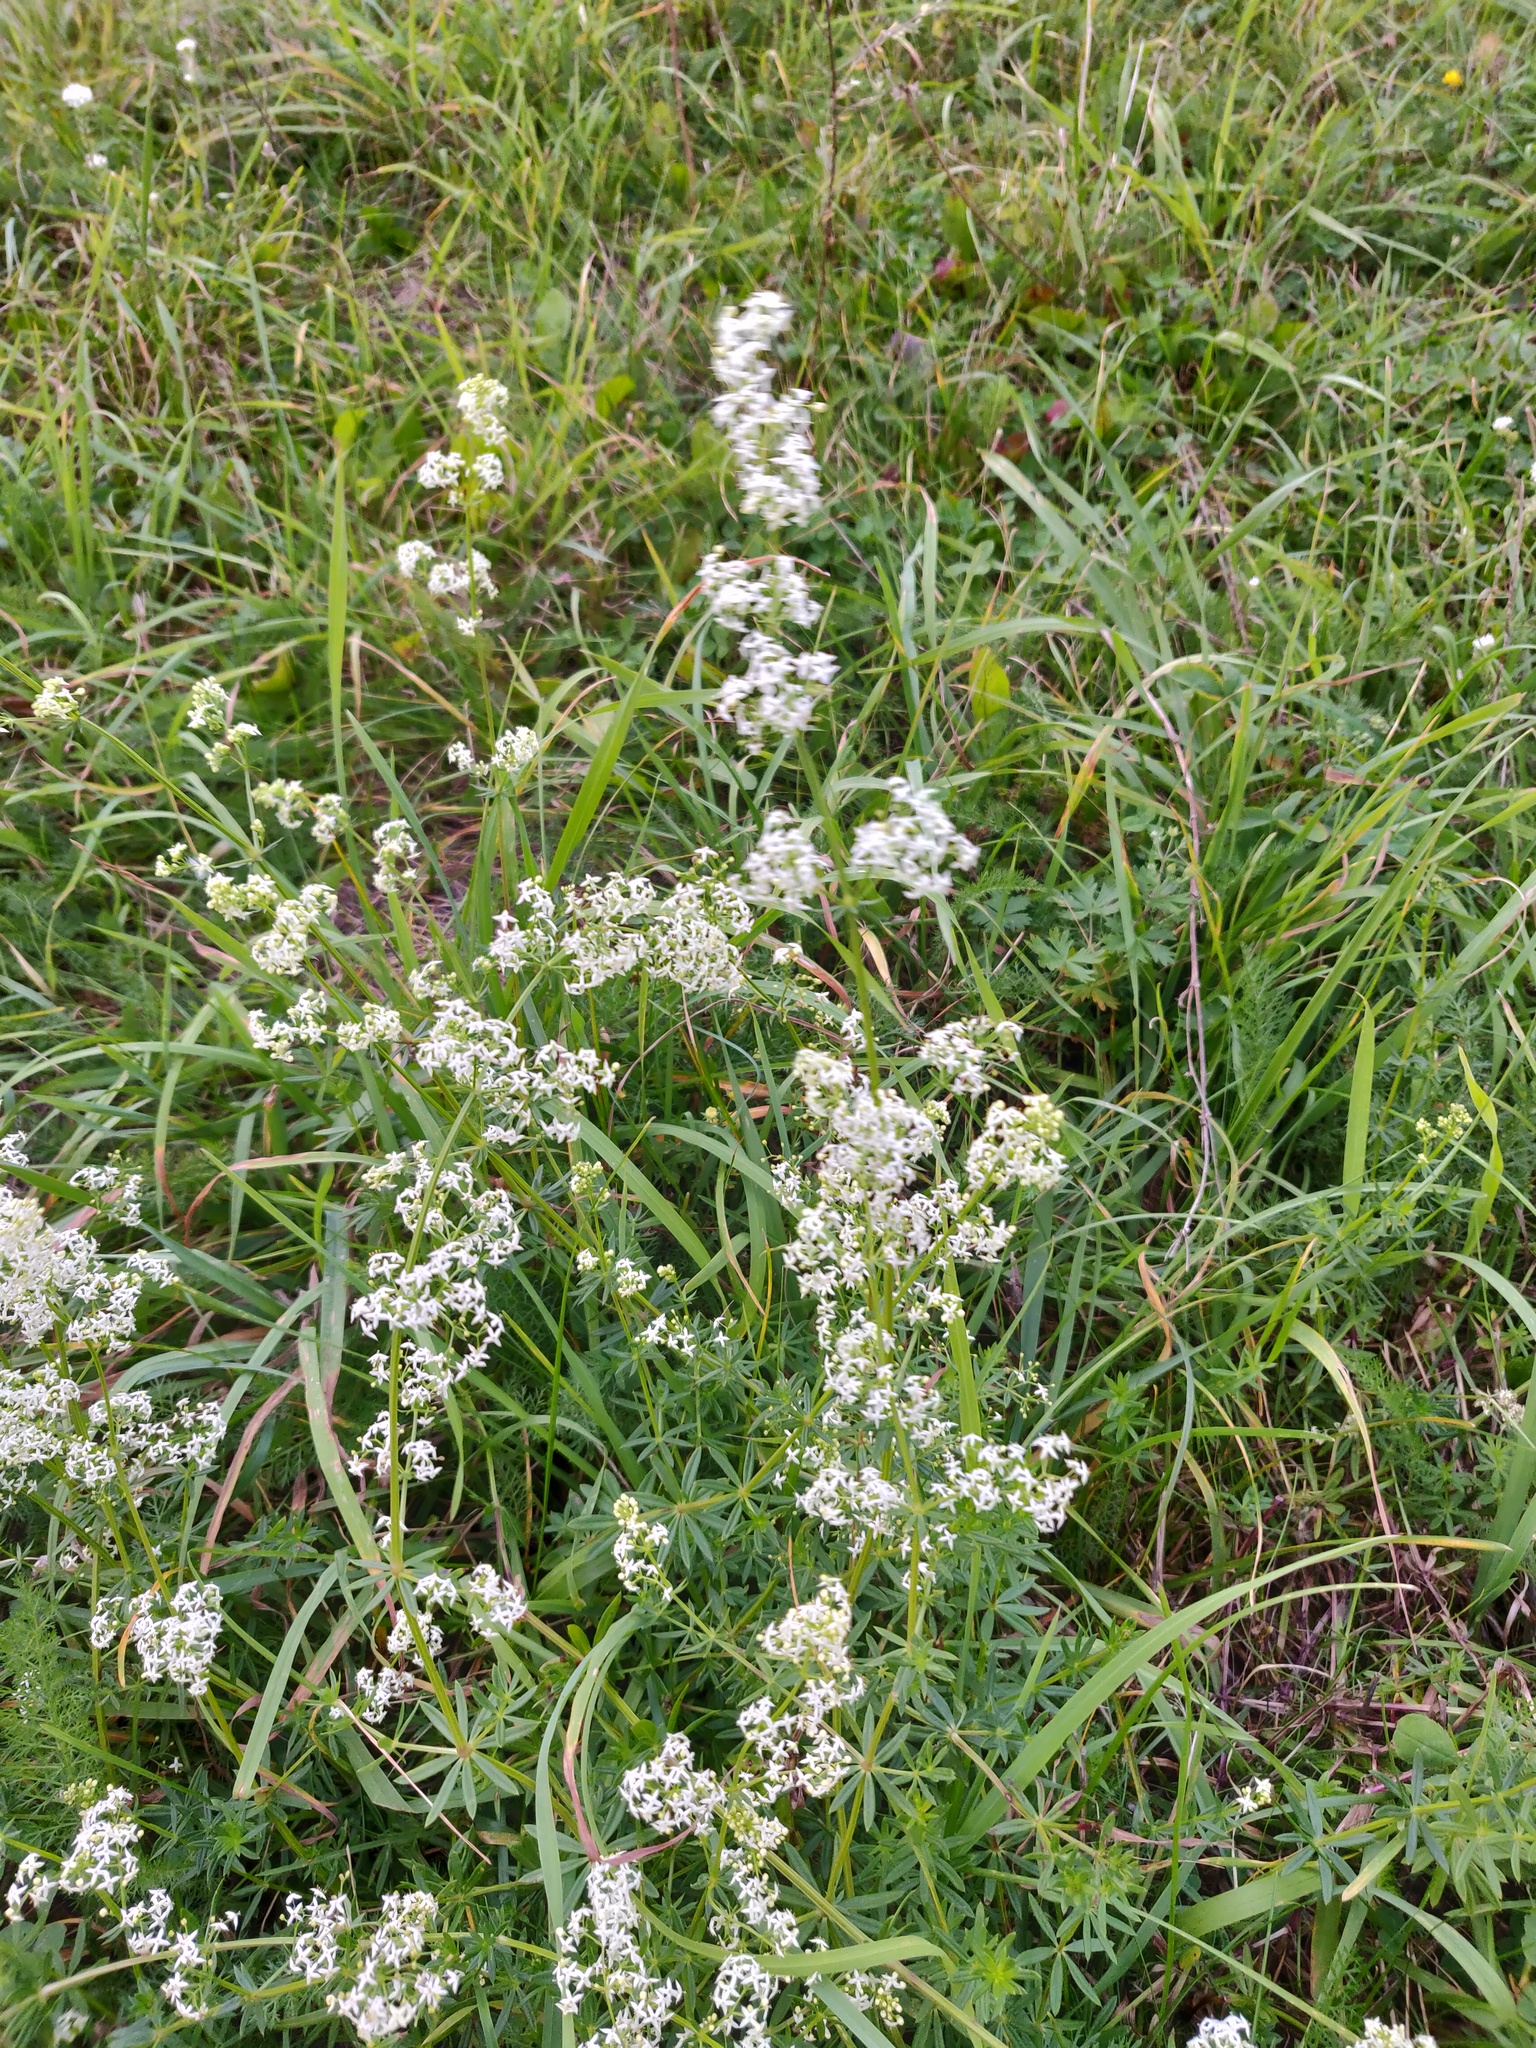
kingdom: Plantae
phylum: Tracheophyta
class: Magnoliopsida
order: Gentianales
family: Rubiaceae
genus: Galium
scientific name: Galium mollugo
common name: Hedge bedstraw
